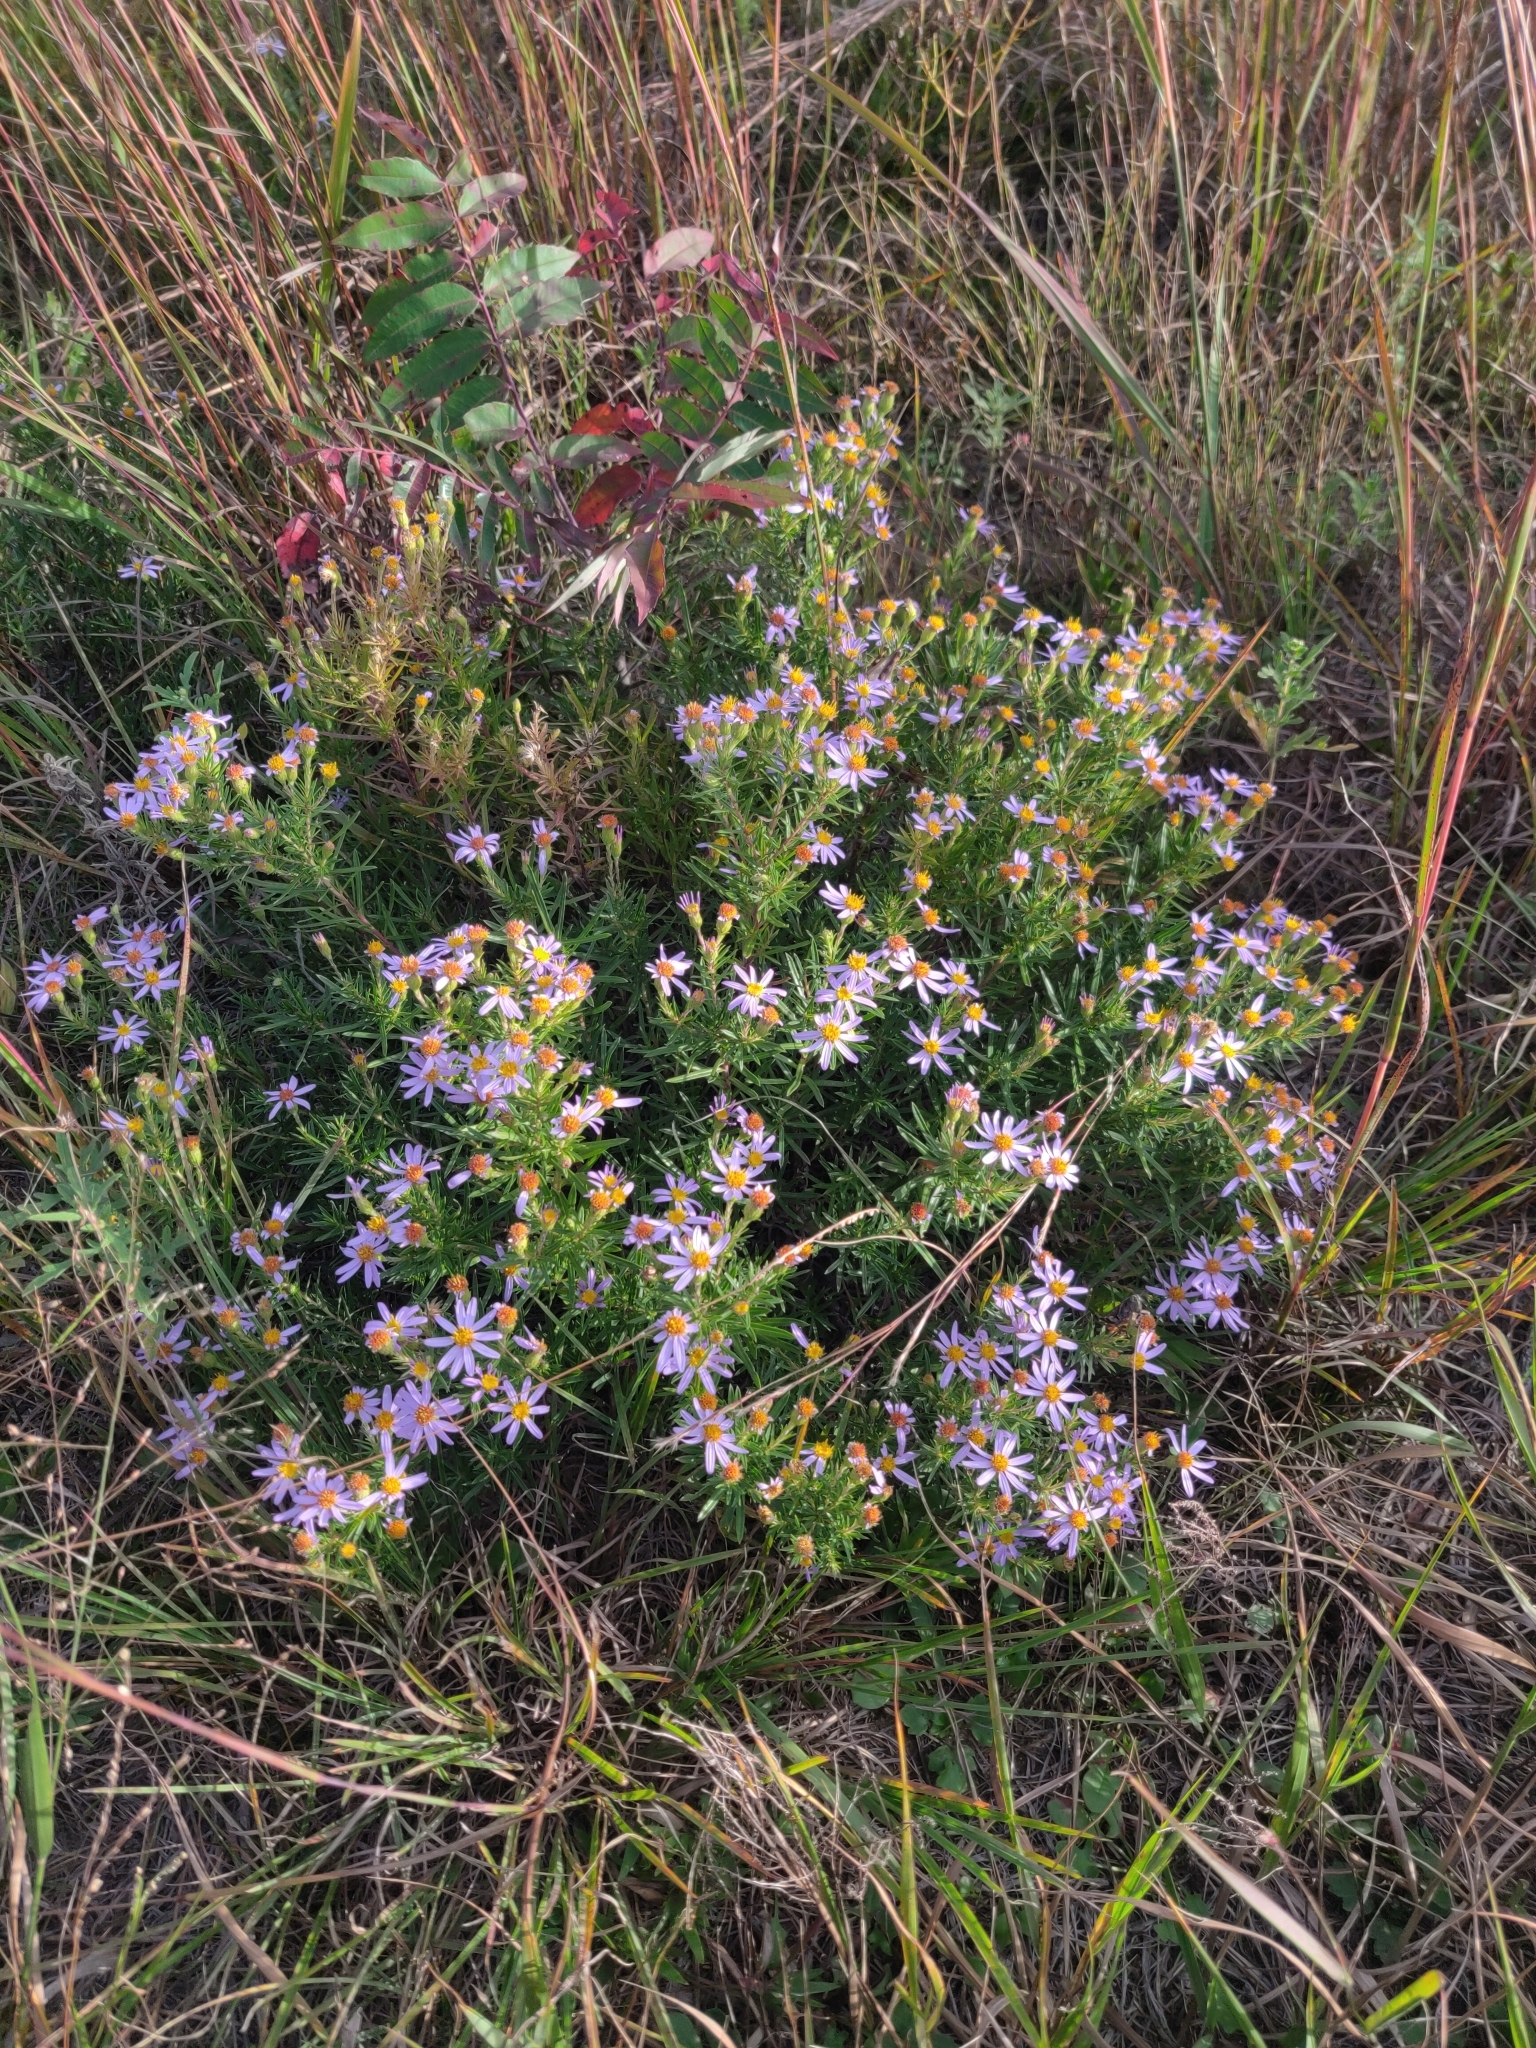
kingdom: Plantae
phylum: Tracheophyta
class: Magnoliopsida
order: Asterales
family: Asteraceae
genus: Ionactis
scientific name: Ionactis linariifolia
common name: Flax-leaf aster
